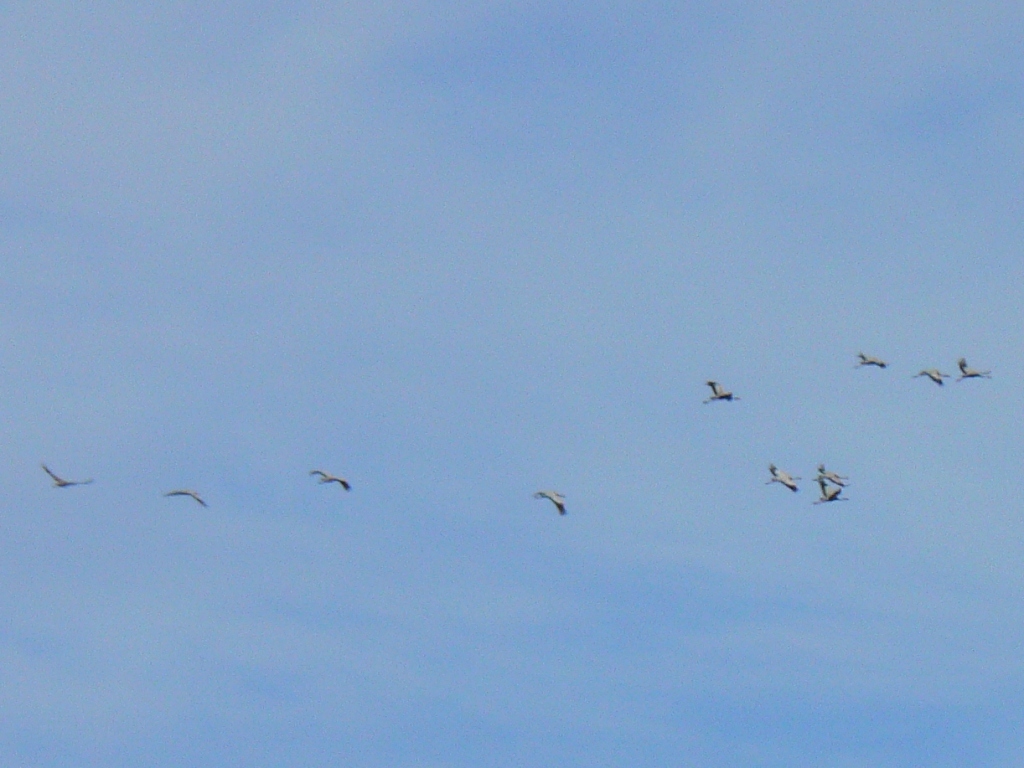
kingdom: Animalia
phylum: Chordata
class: Aves
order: Gruiformes
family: Gruidae
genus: Grus
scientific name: Grus grus
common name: Common crane
